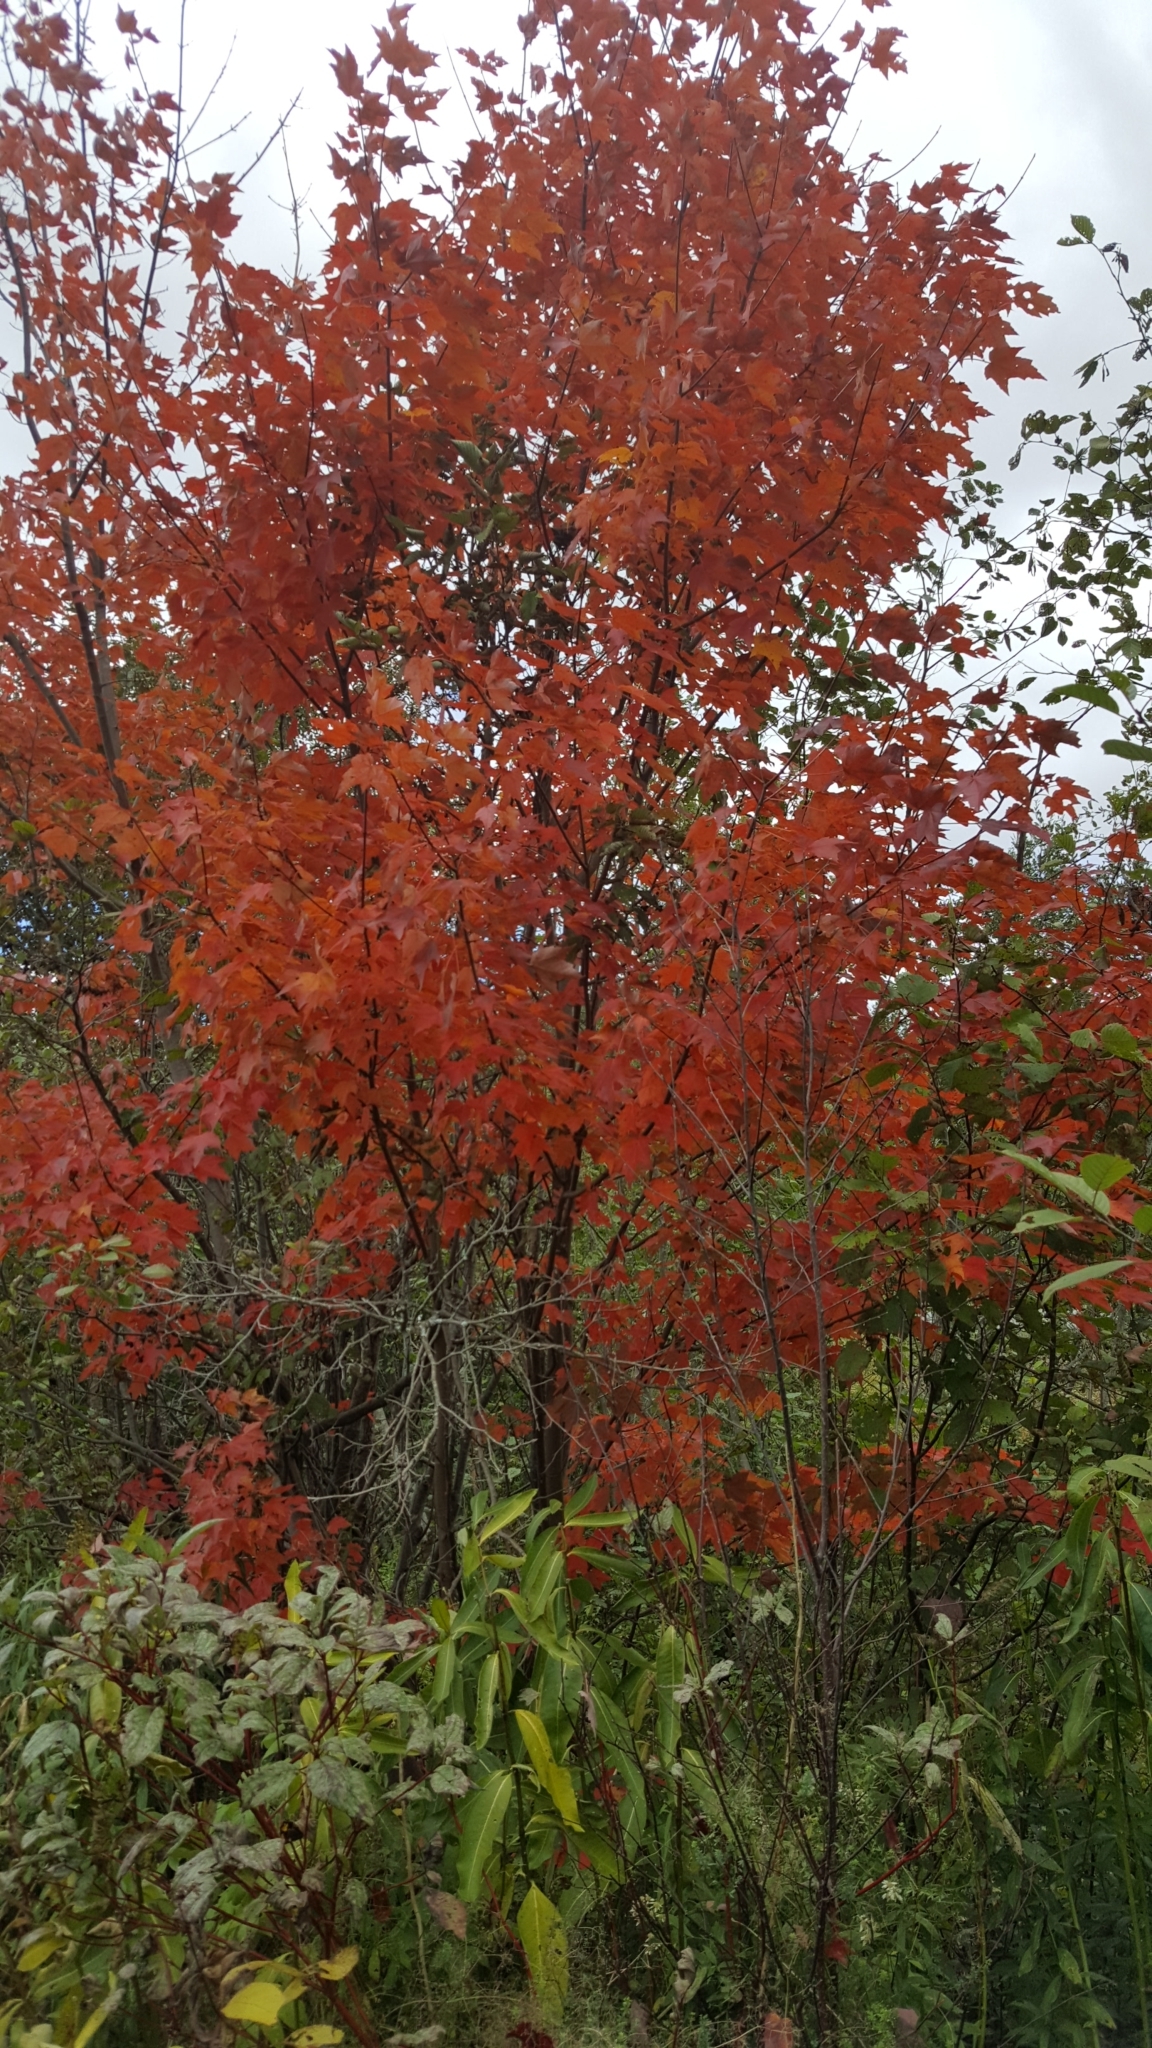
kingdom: Plantae
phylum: Tracheophyta
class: Magnoliopsida
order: Sapindales
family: Sapindaceae
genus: Acer
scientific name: Acer rubrum
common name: Red maple
